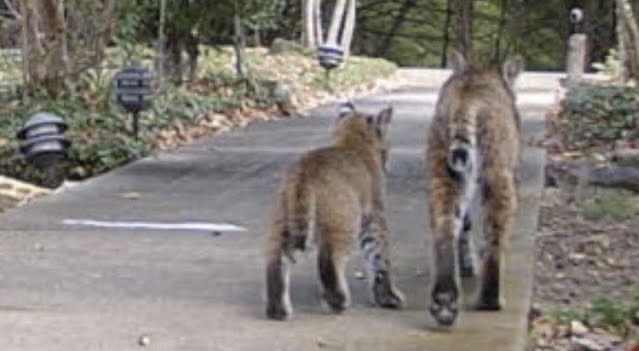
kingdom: Animalia
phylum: Chordata
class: Mammalia
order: Carnivora
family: Felidae
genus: Lynx
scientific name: Lynx rufus
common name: Bobcat
